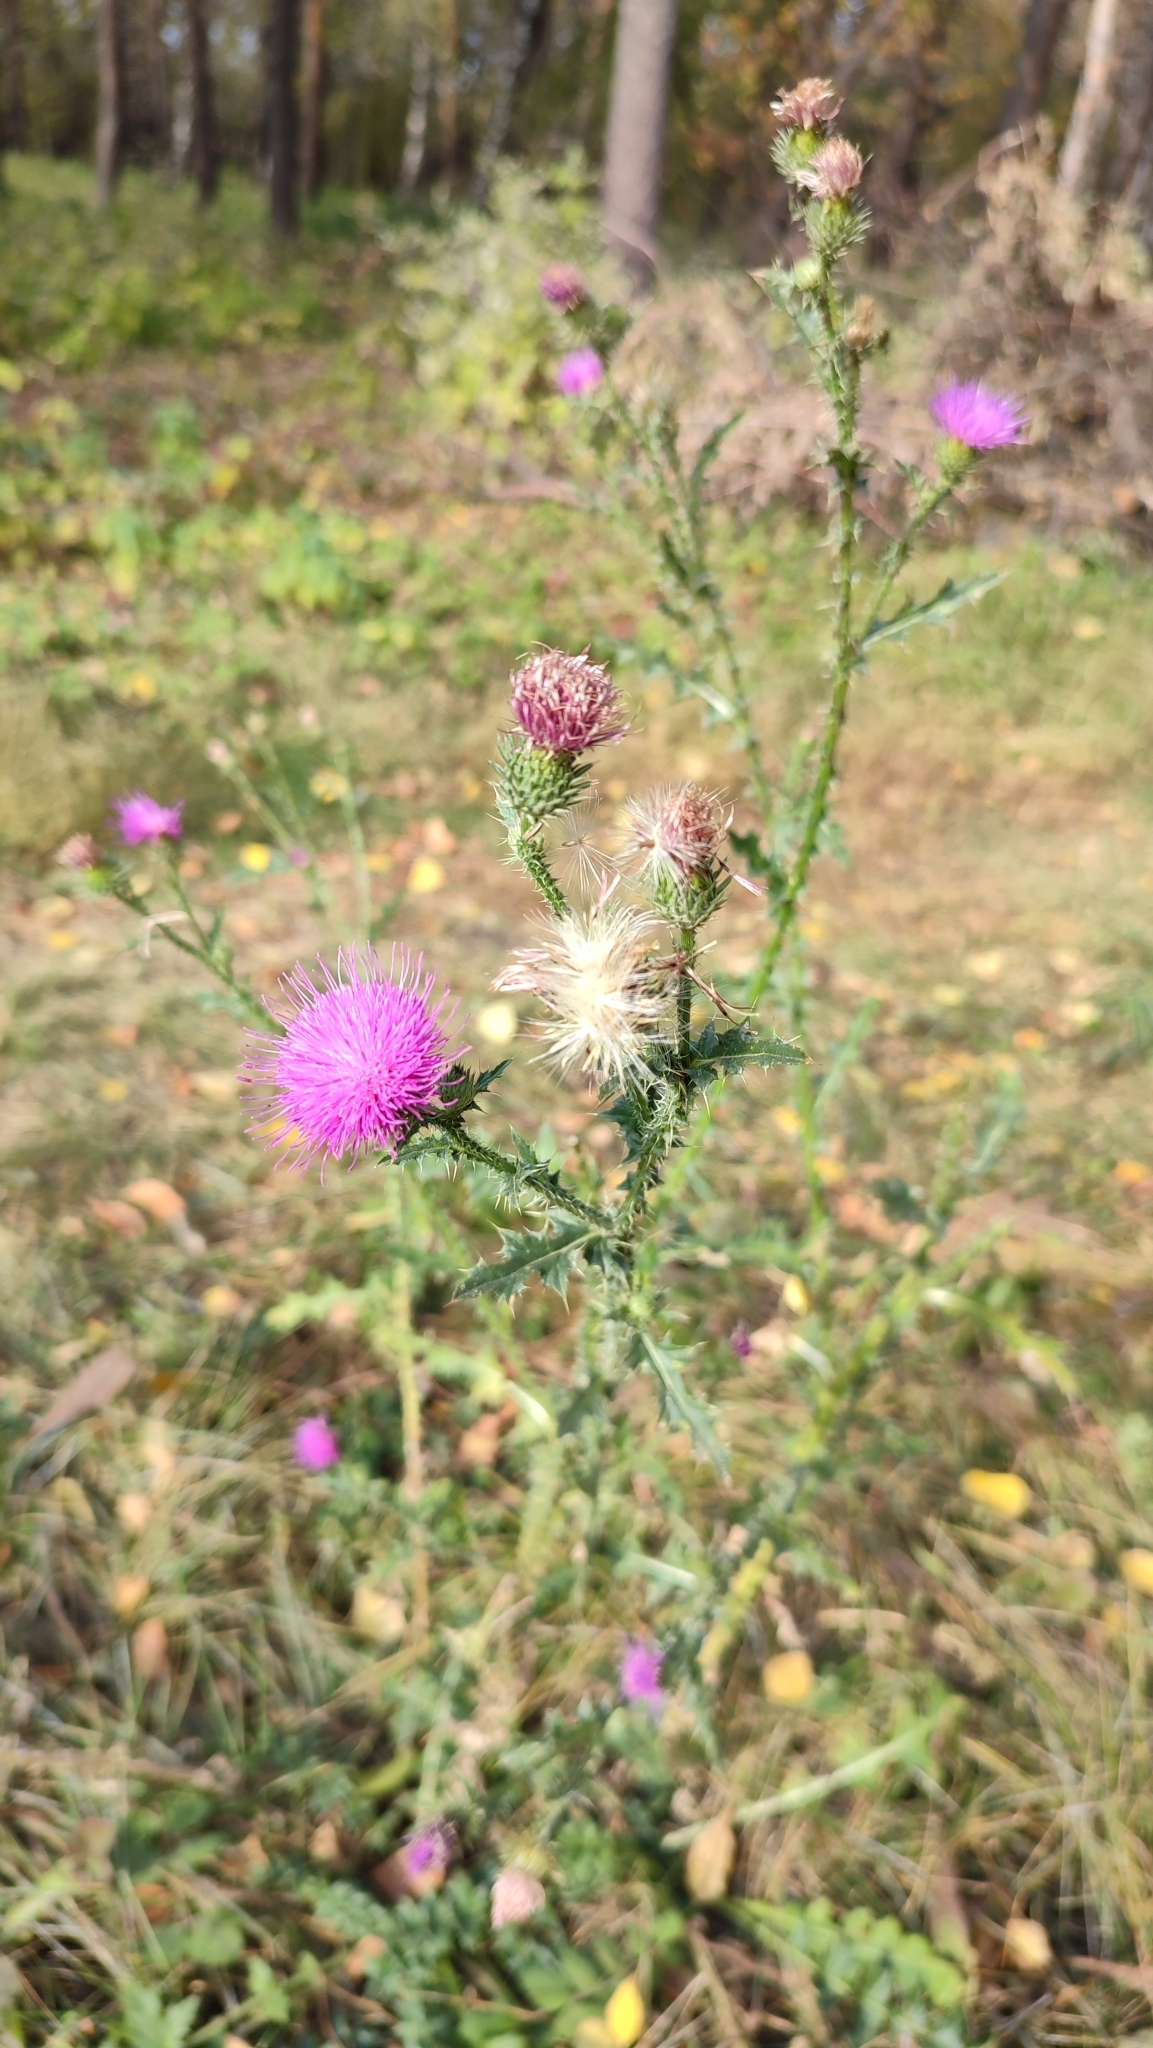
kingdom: Plantae
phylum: Tracheophyta
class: Magnoliopsida
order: Asterales
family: Asteraceae
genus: Carduus
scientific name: Carduus acanthoides
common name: Plumeless thistle
